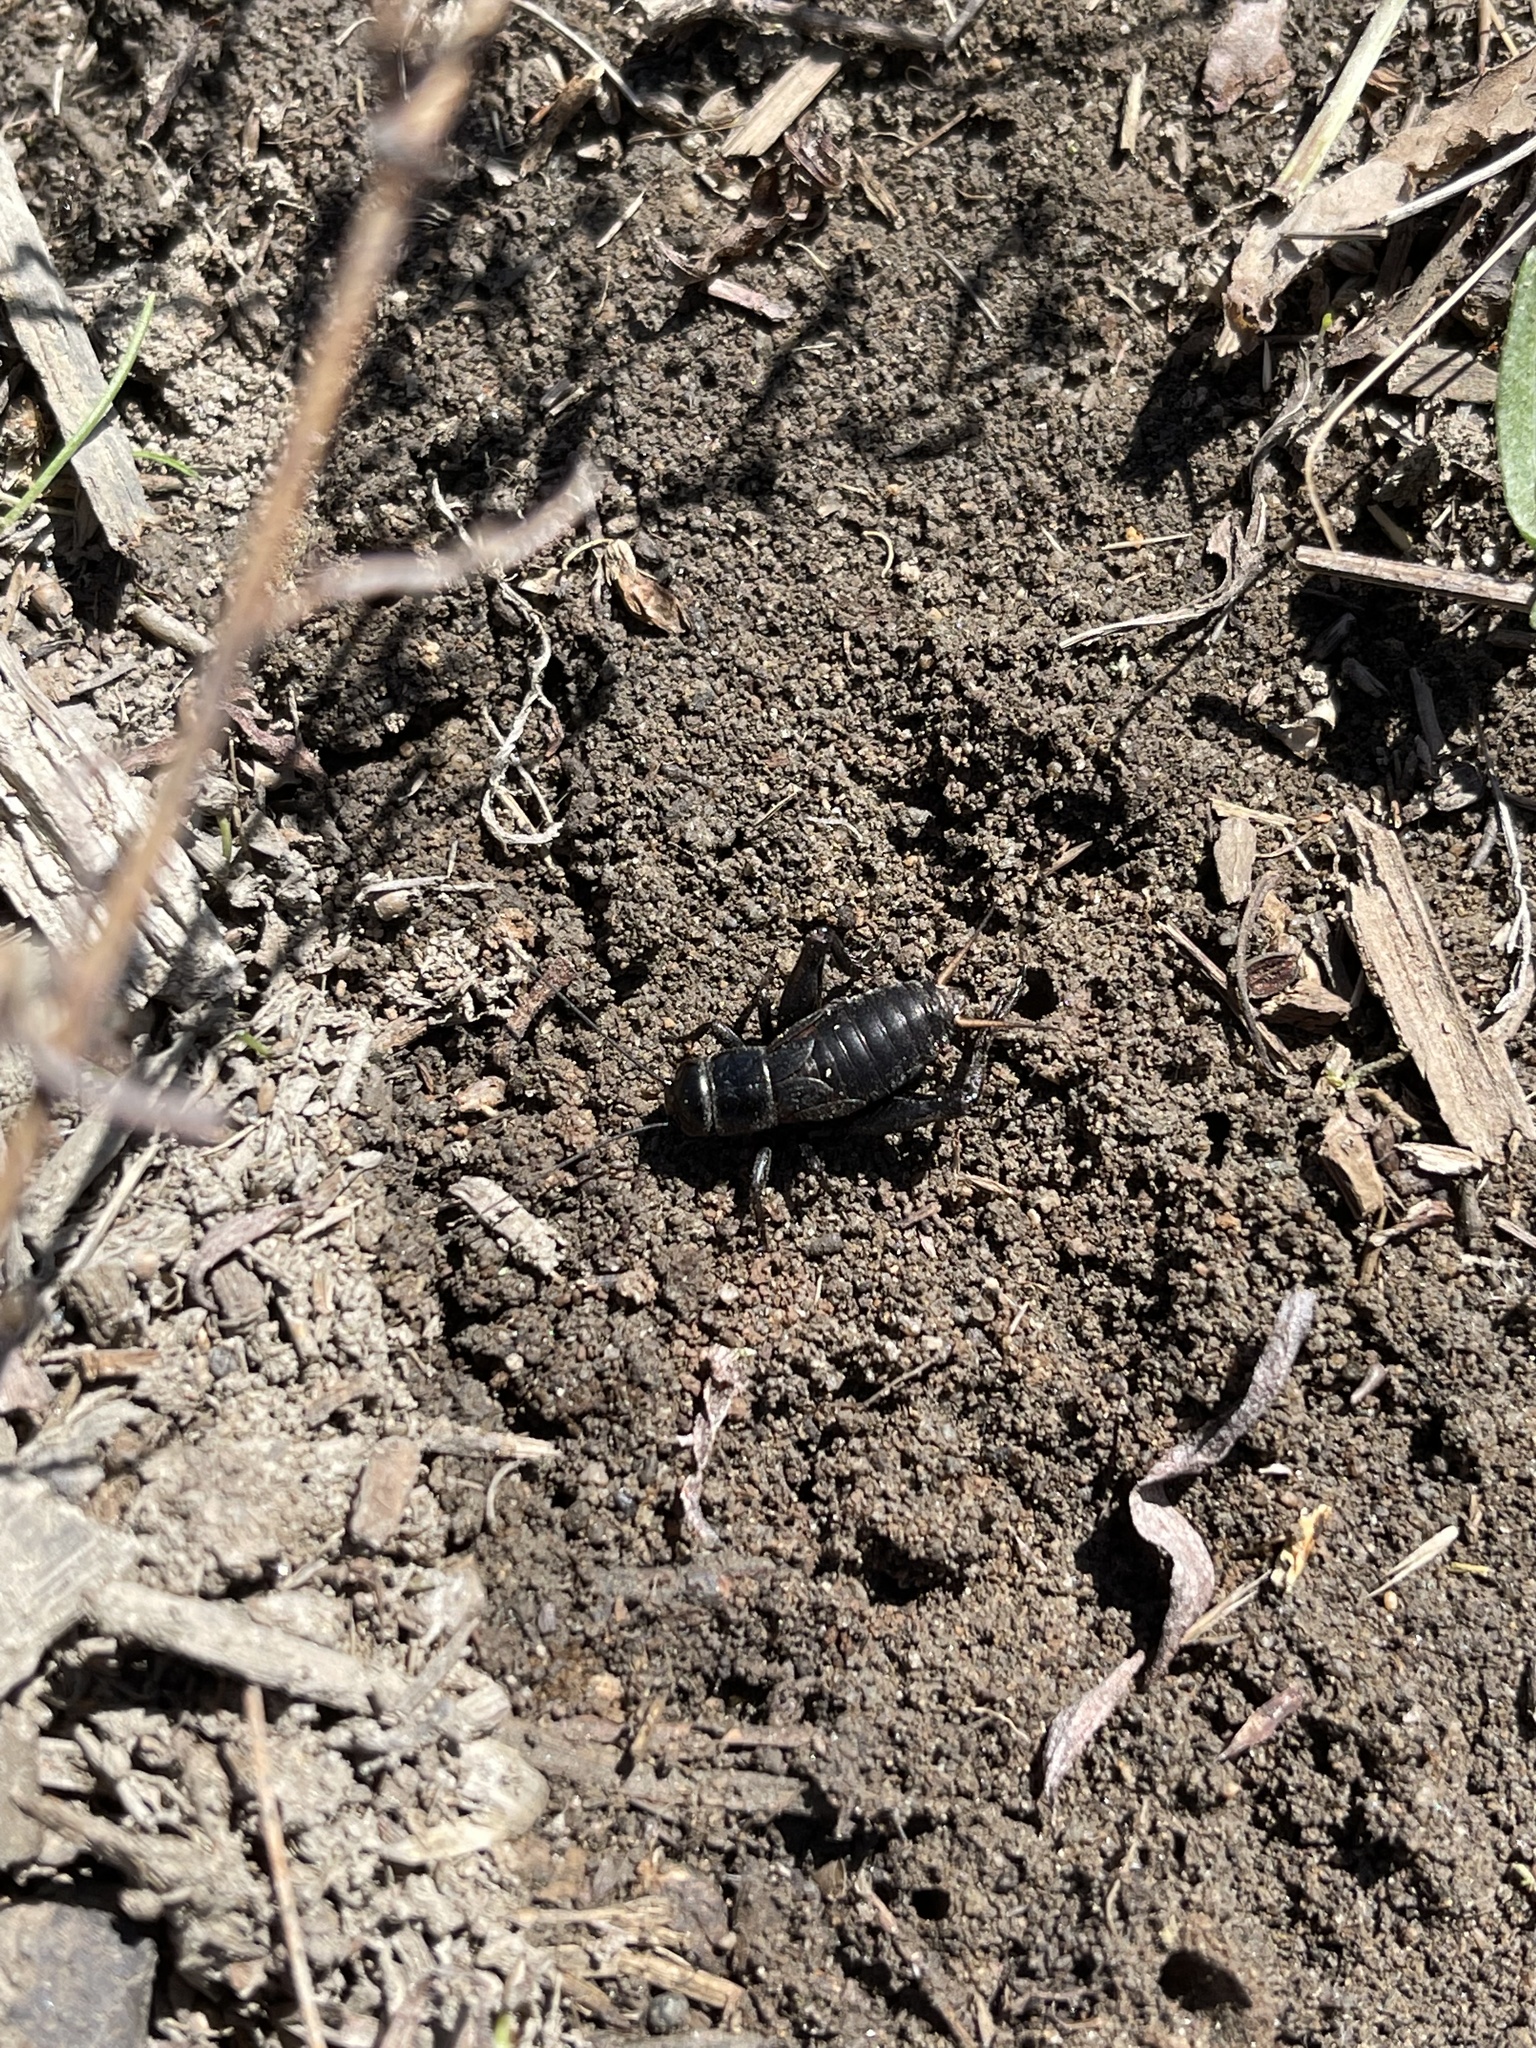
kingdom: Animalia
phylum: Arthropoda
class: Insecta
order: Orthoptera
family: Gryllidae
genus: Gryllus
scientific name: Gryllus veletis
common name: Spring field cricket
